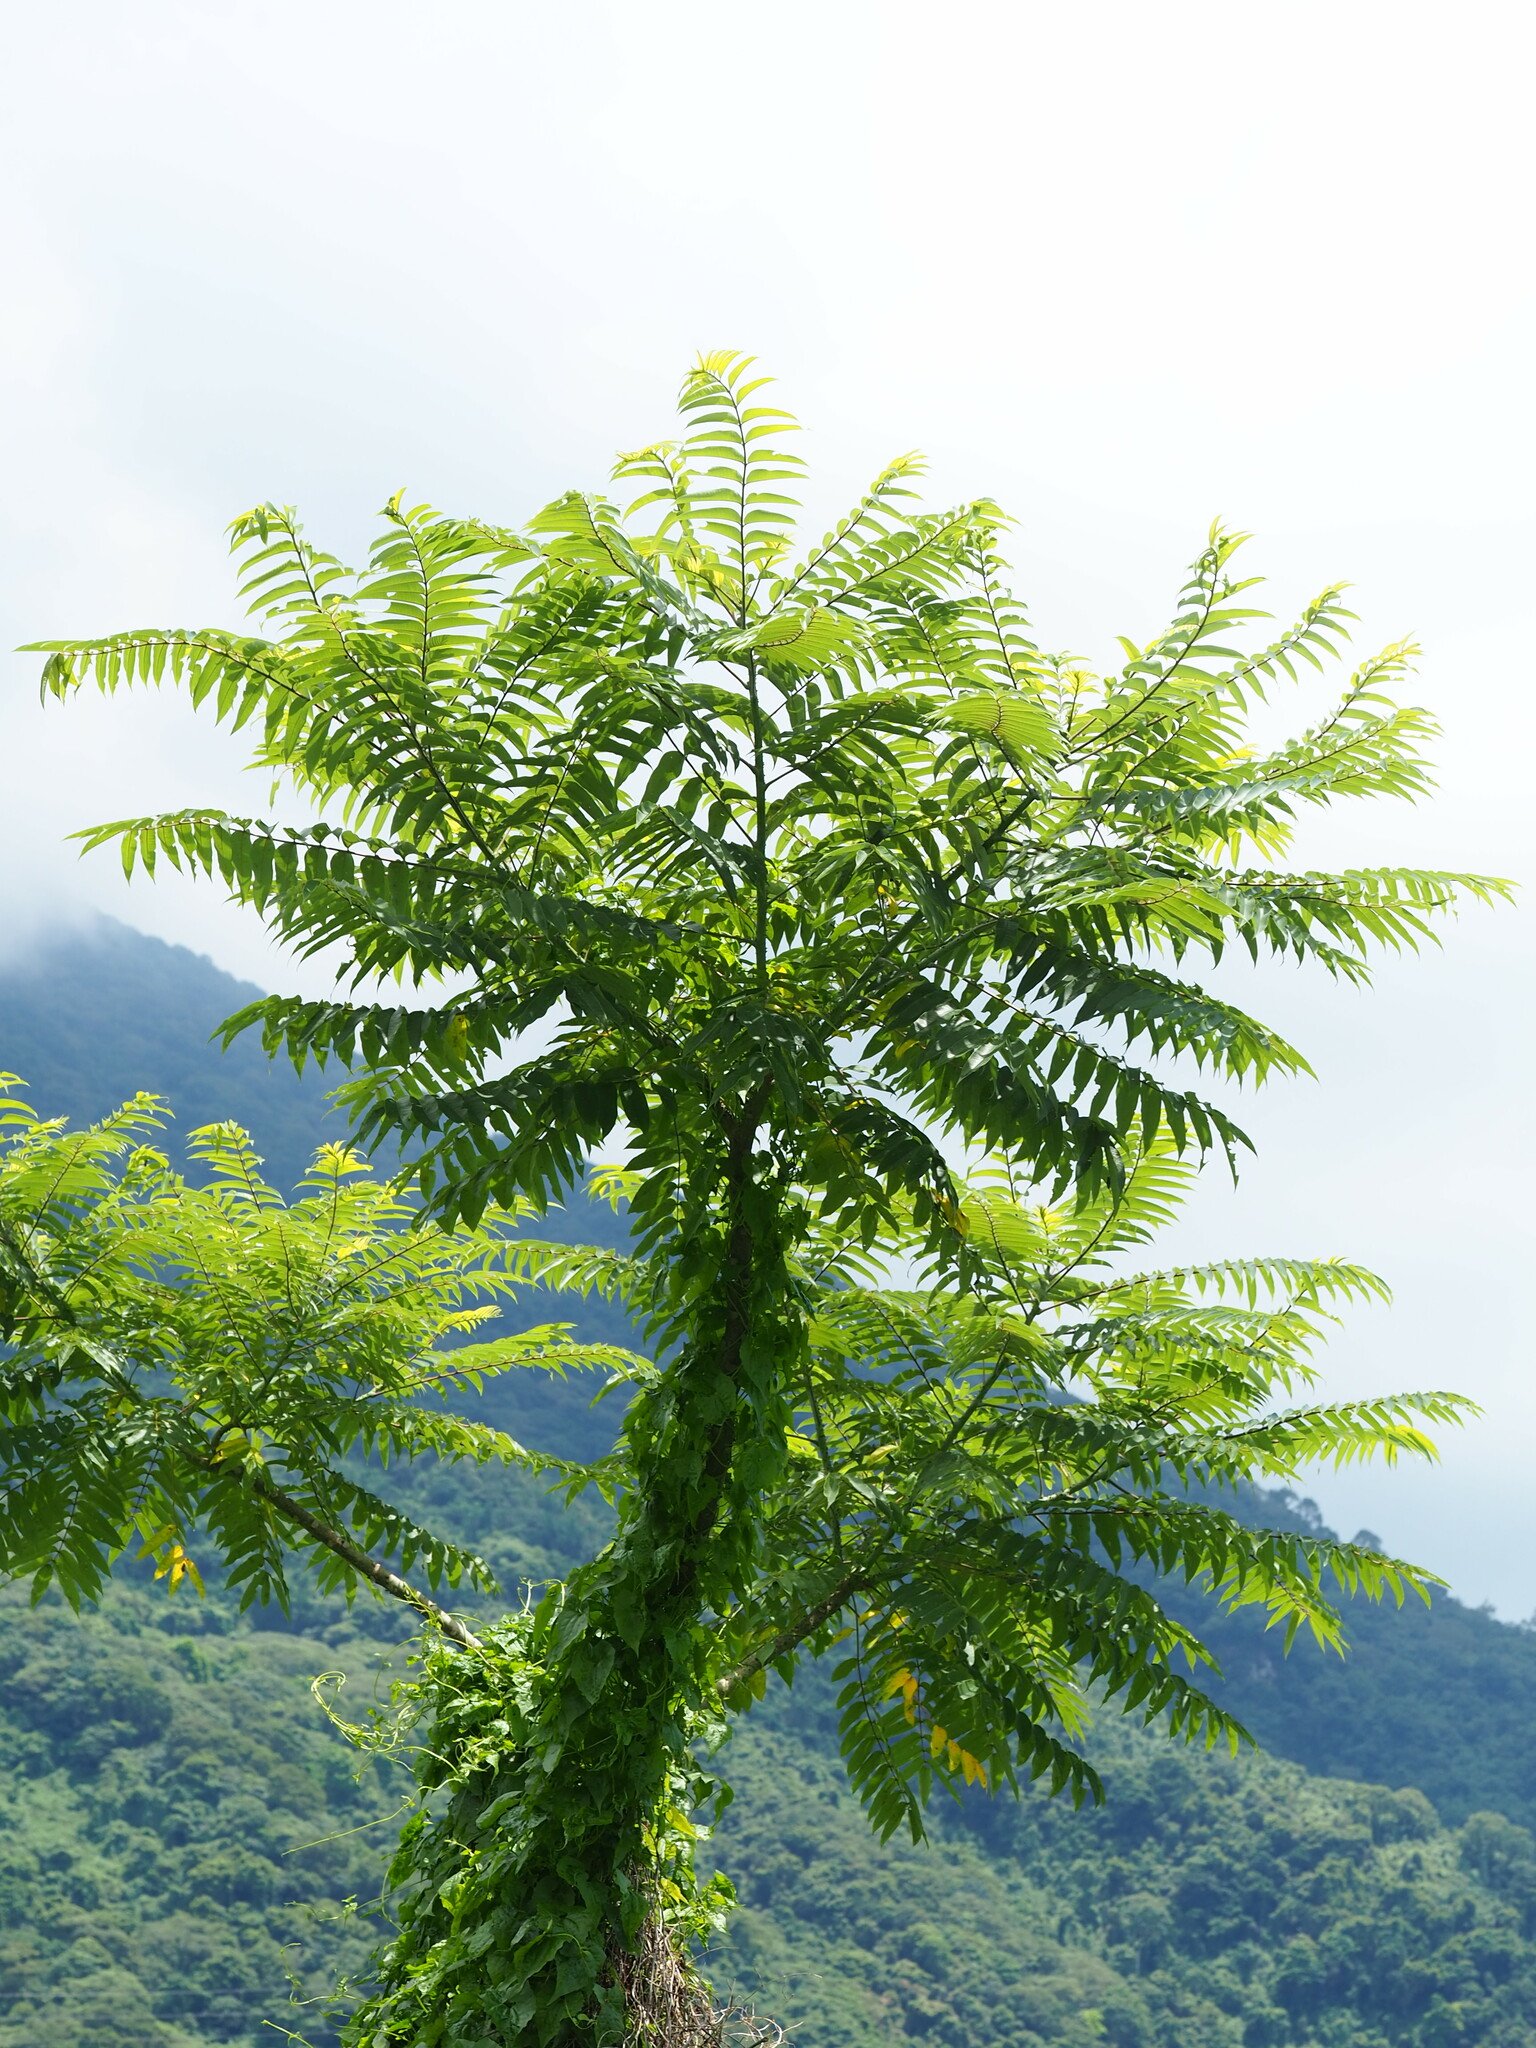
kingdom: Plantae
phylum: Tracheophyta
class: Magnoliopsida
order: Sapindales
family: Rutaceae
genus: Zanthoxylum
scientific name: Zanthoxylum ailanthoides
